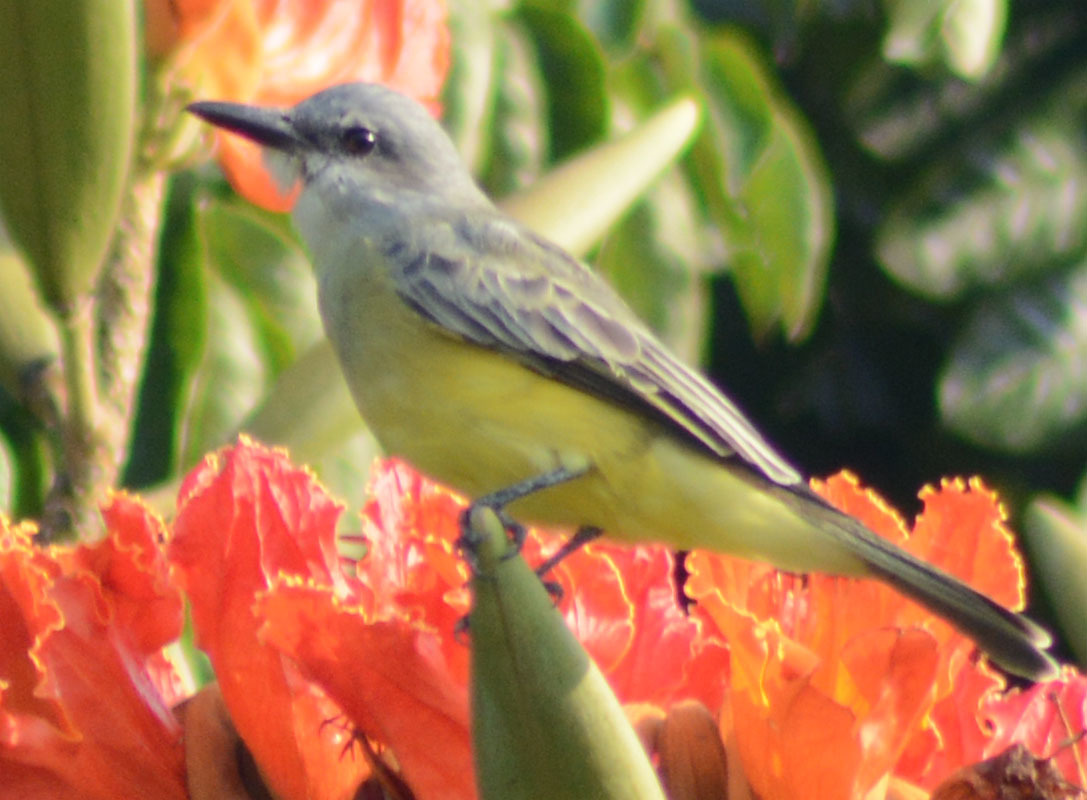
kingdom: Animalia
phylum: Chordata
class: Aves
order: Passeriformes
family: Tyrannidae
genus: Tyrannus
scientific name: Tyrannus melancholicus
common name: Tropical kingbird
